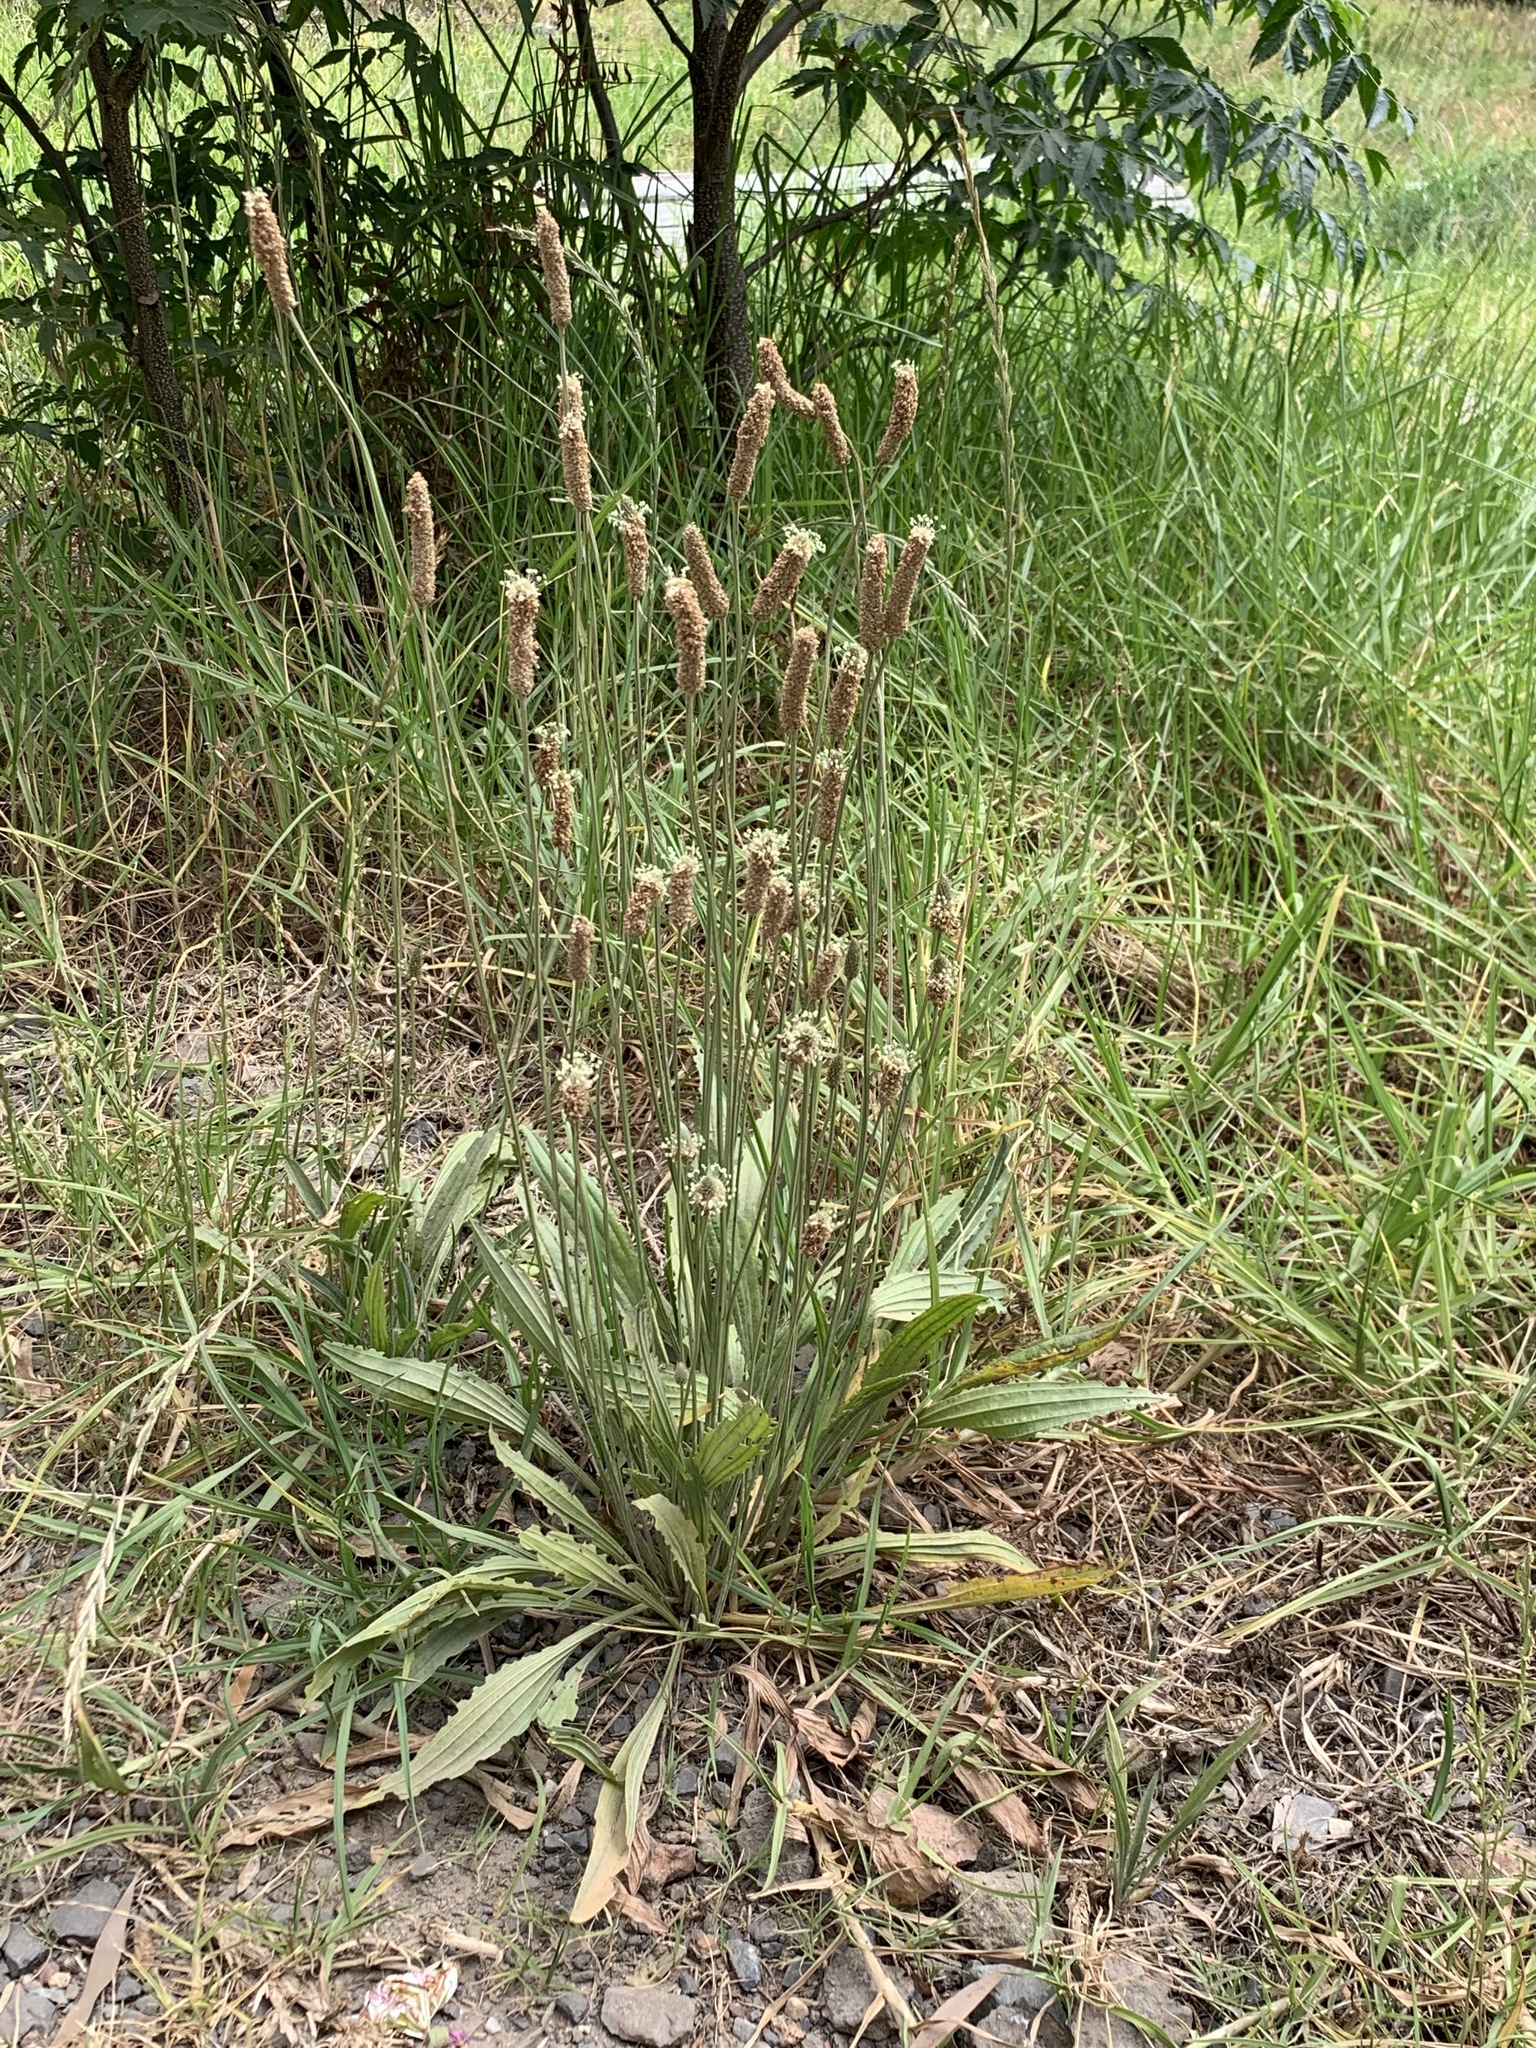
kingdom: Plantae
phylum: Tracheophyta
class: Magnoliopsida
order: Lamiales
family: Plantaginaceae
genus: Plantago
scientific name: Plantago lanceolata
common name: Ribwort plantain
